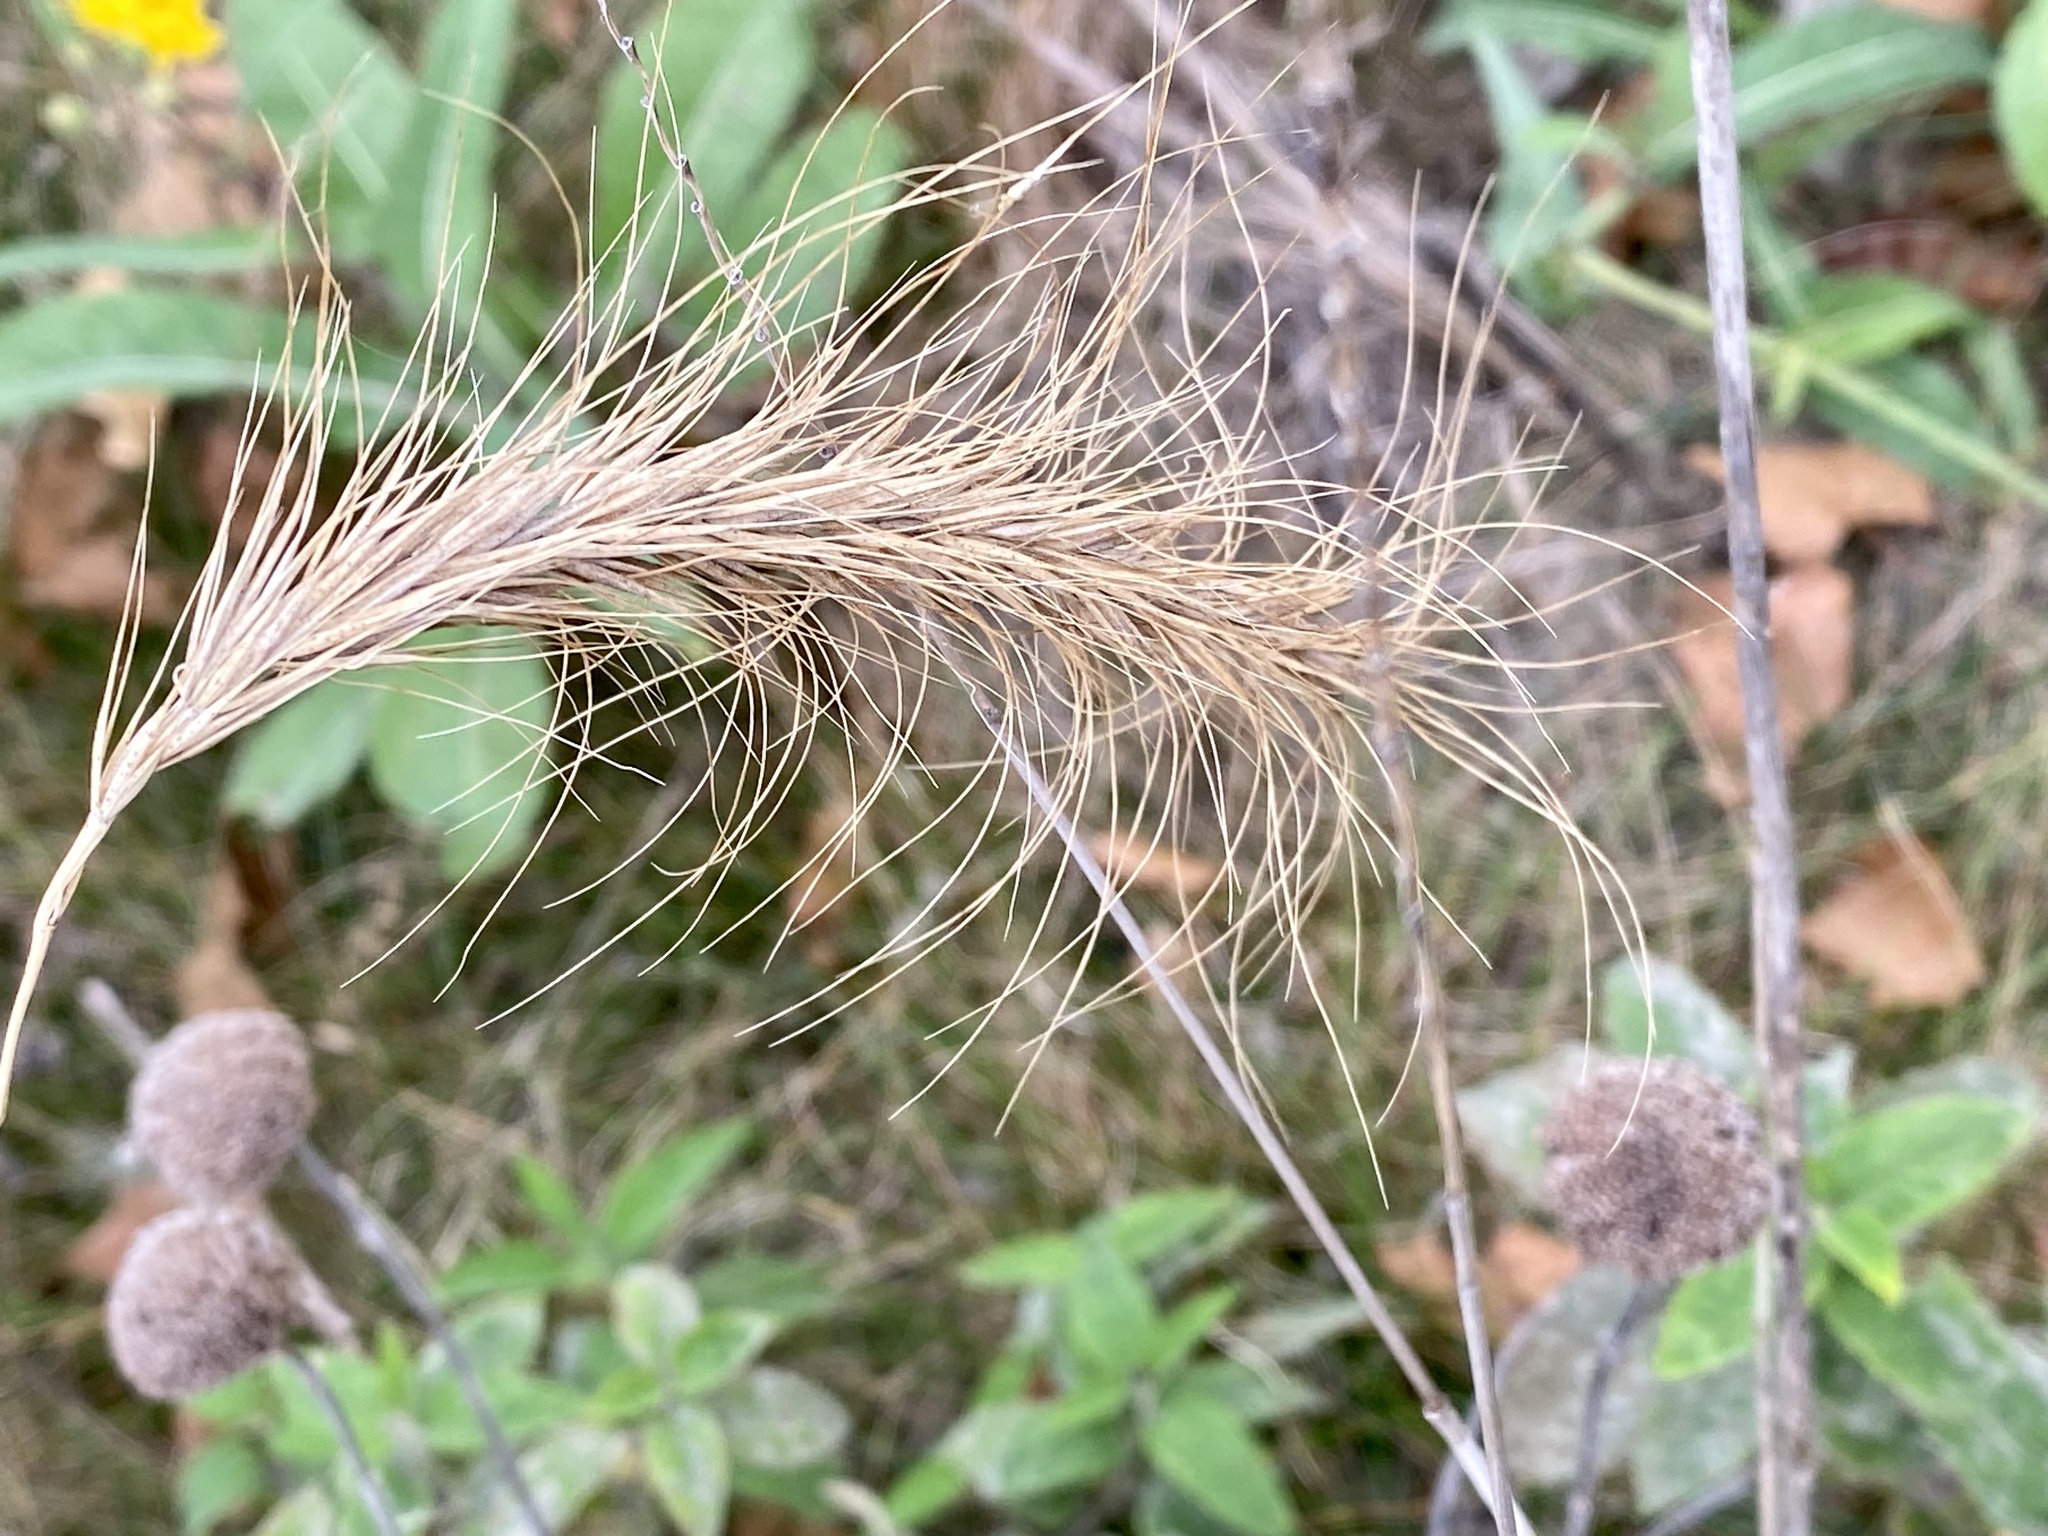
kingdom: Plantae
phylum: Tracheophyta
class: Liliopsida
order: Poales
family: Poaceae
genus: Elymus
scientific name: Elymus canadensis
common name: Canada wild rye
